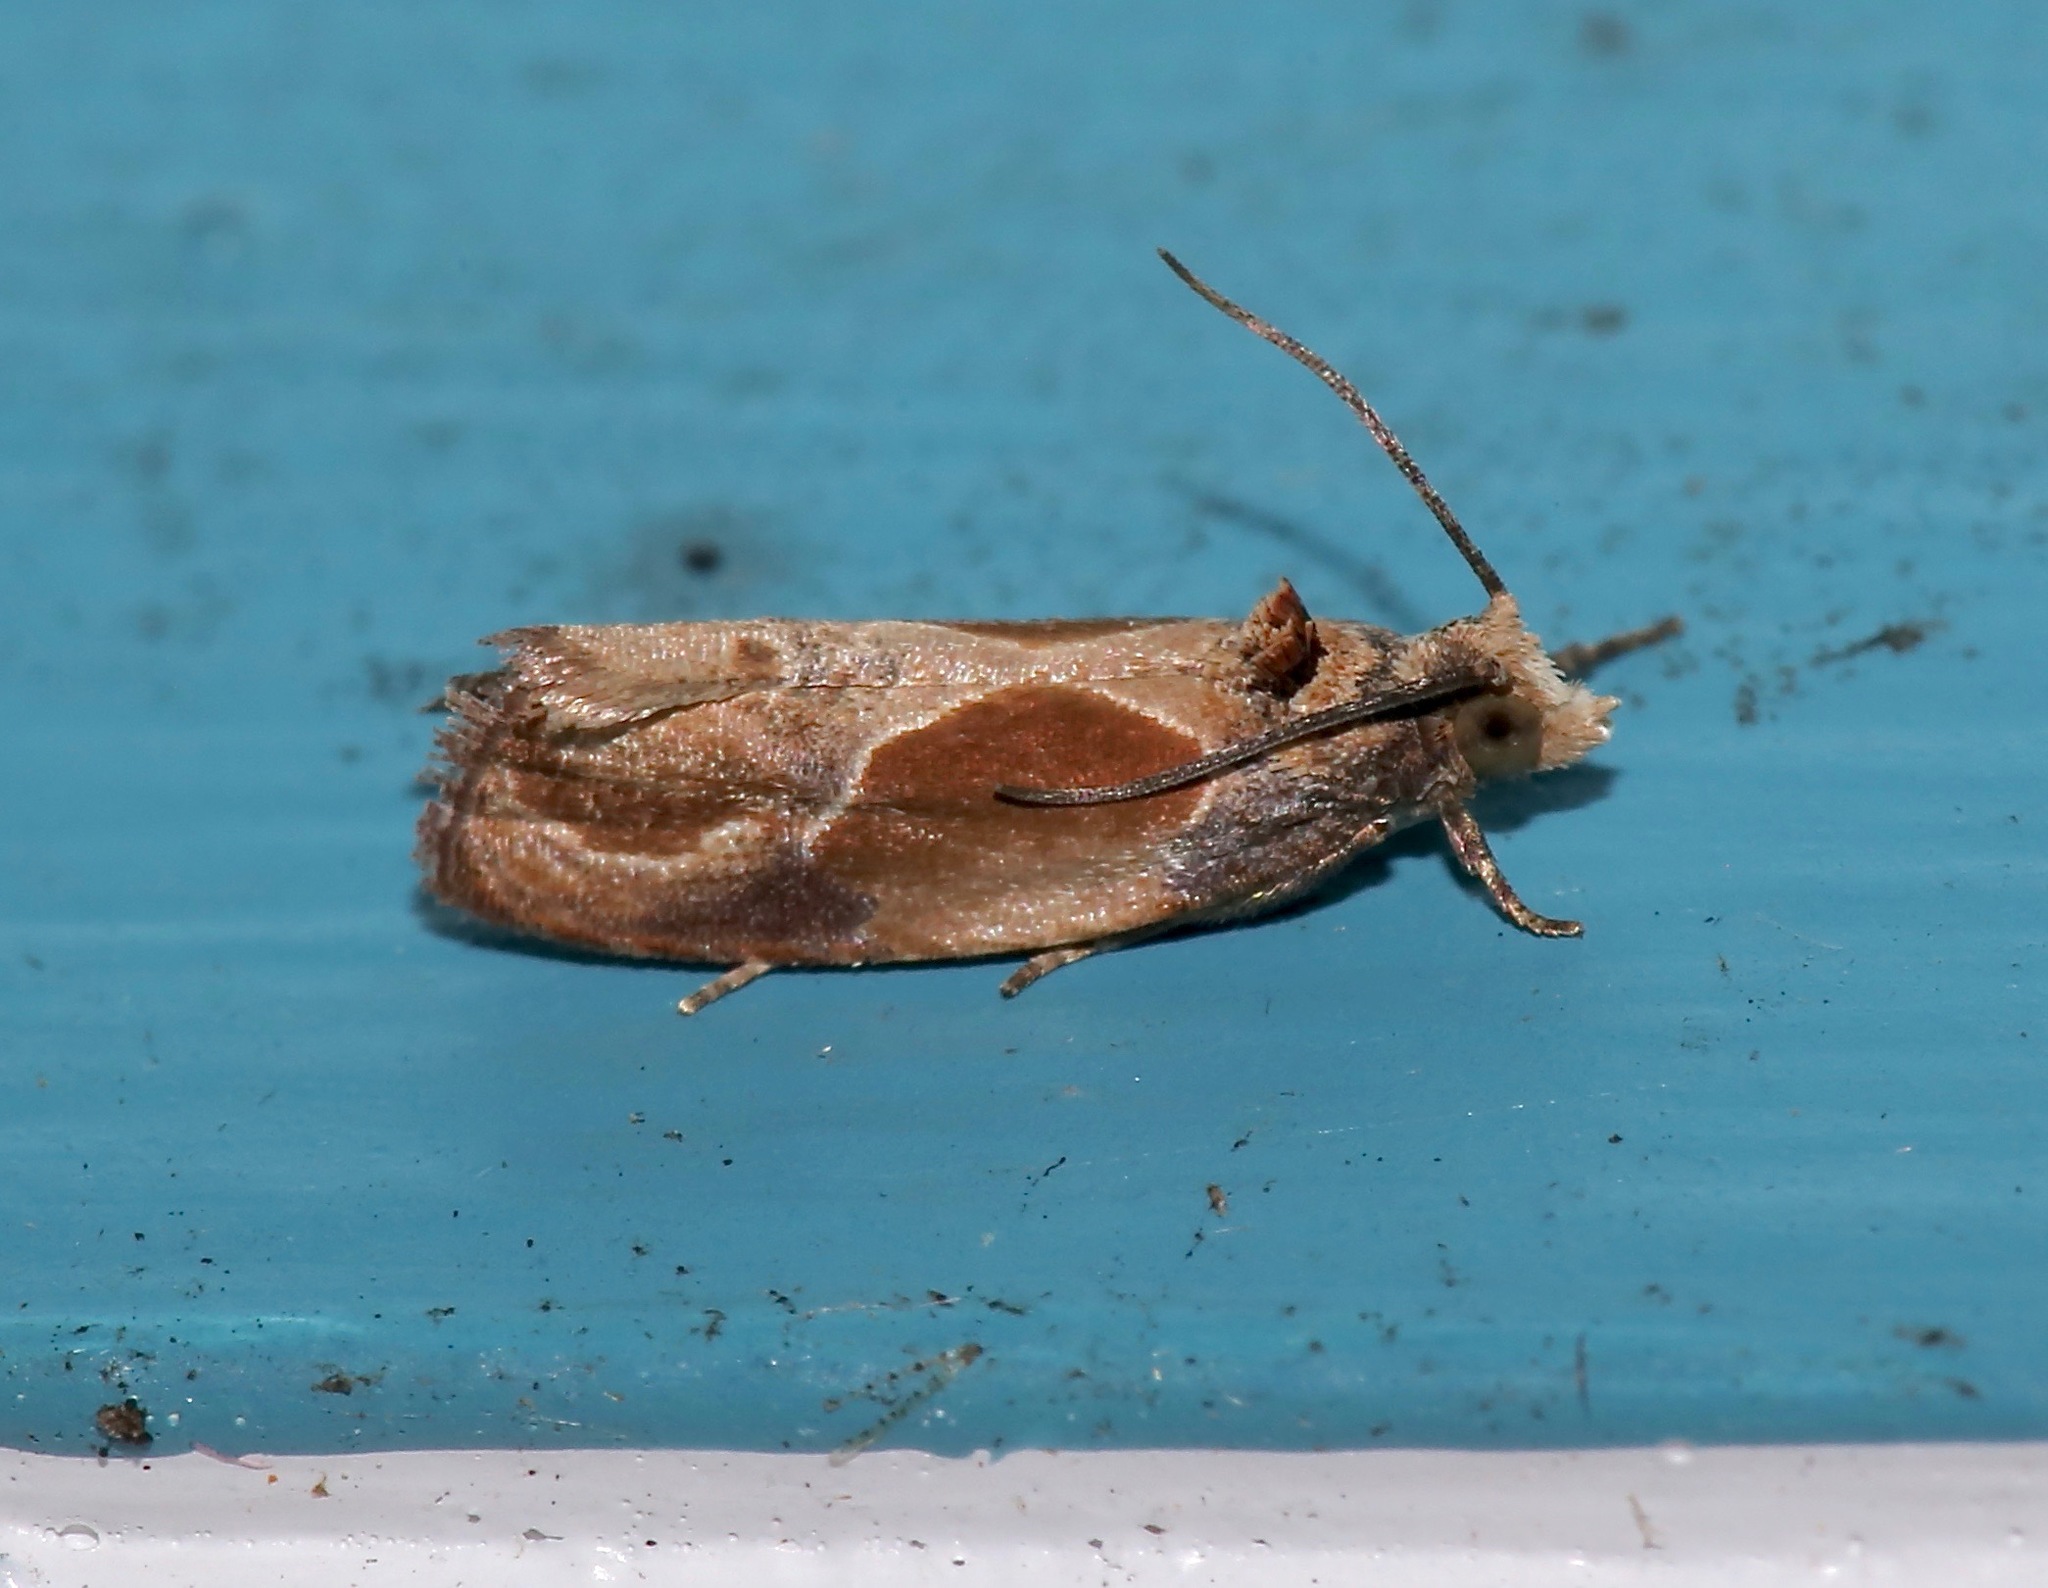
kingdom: Animalia
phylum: Arthropoda
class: Insecta
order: Lepidoptera
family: Tortricidae
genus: Eumarozia
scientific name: Eumarozia malachitana
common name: Sculptured moth
